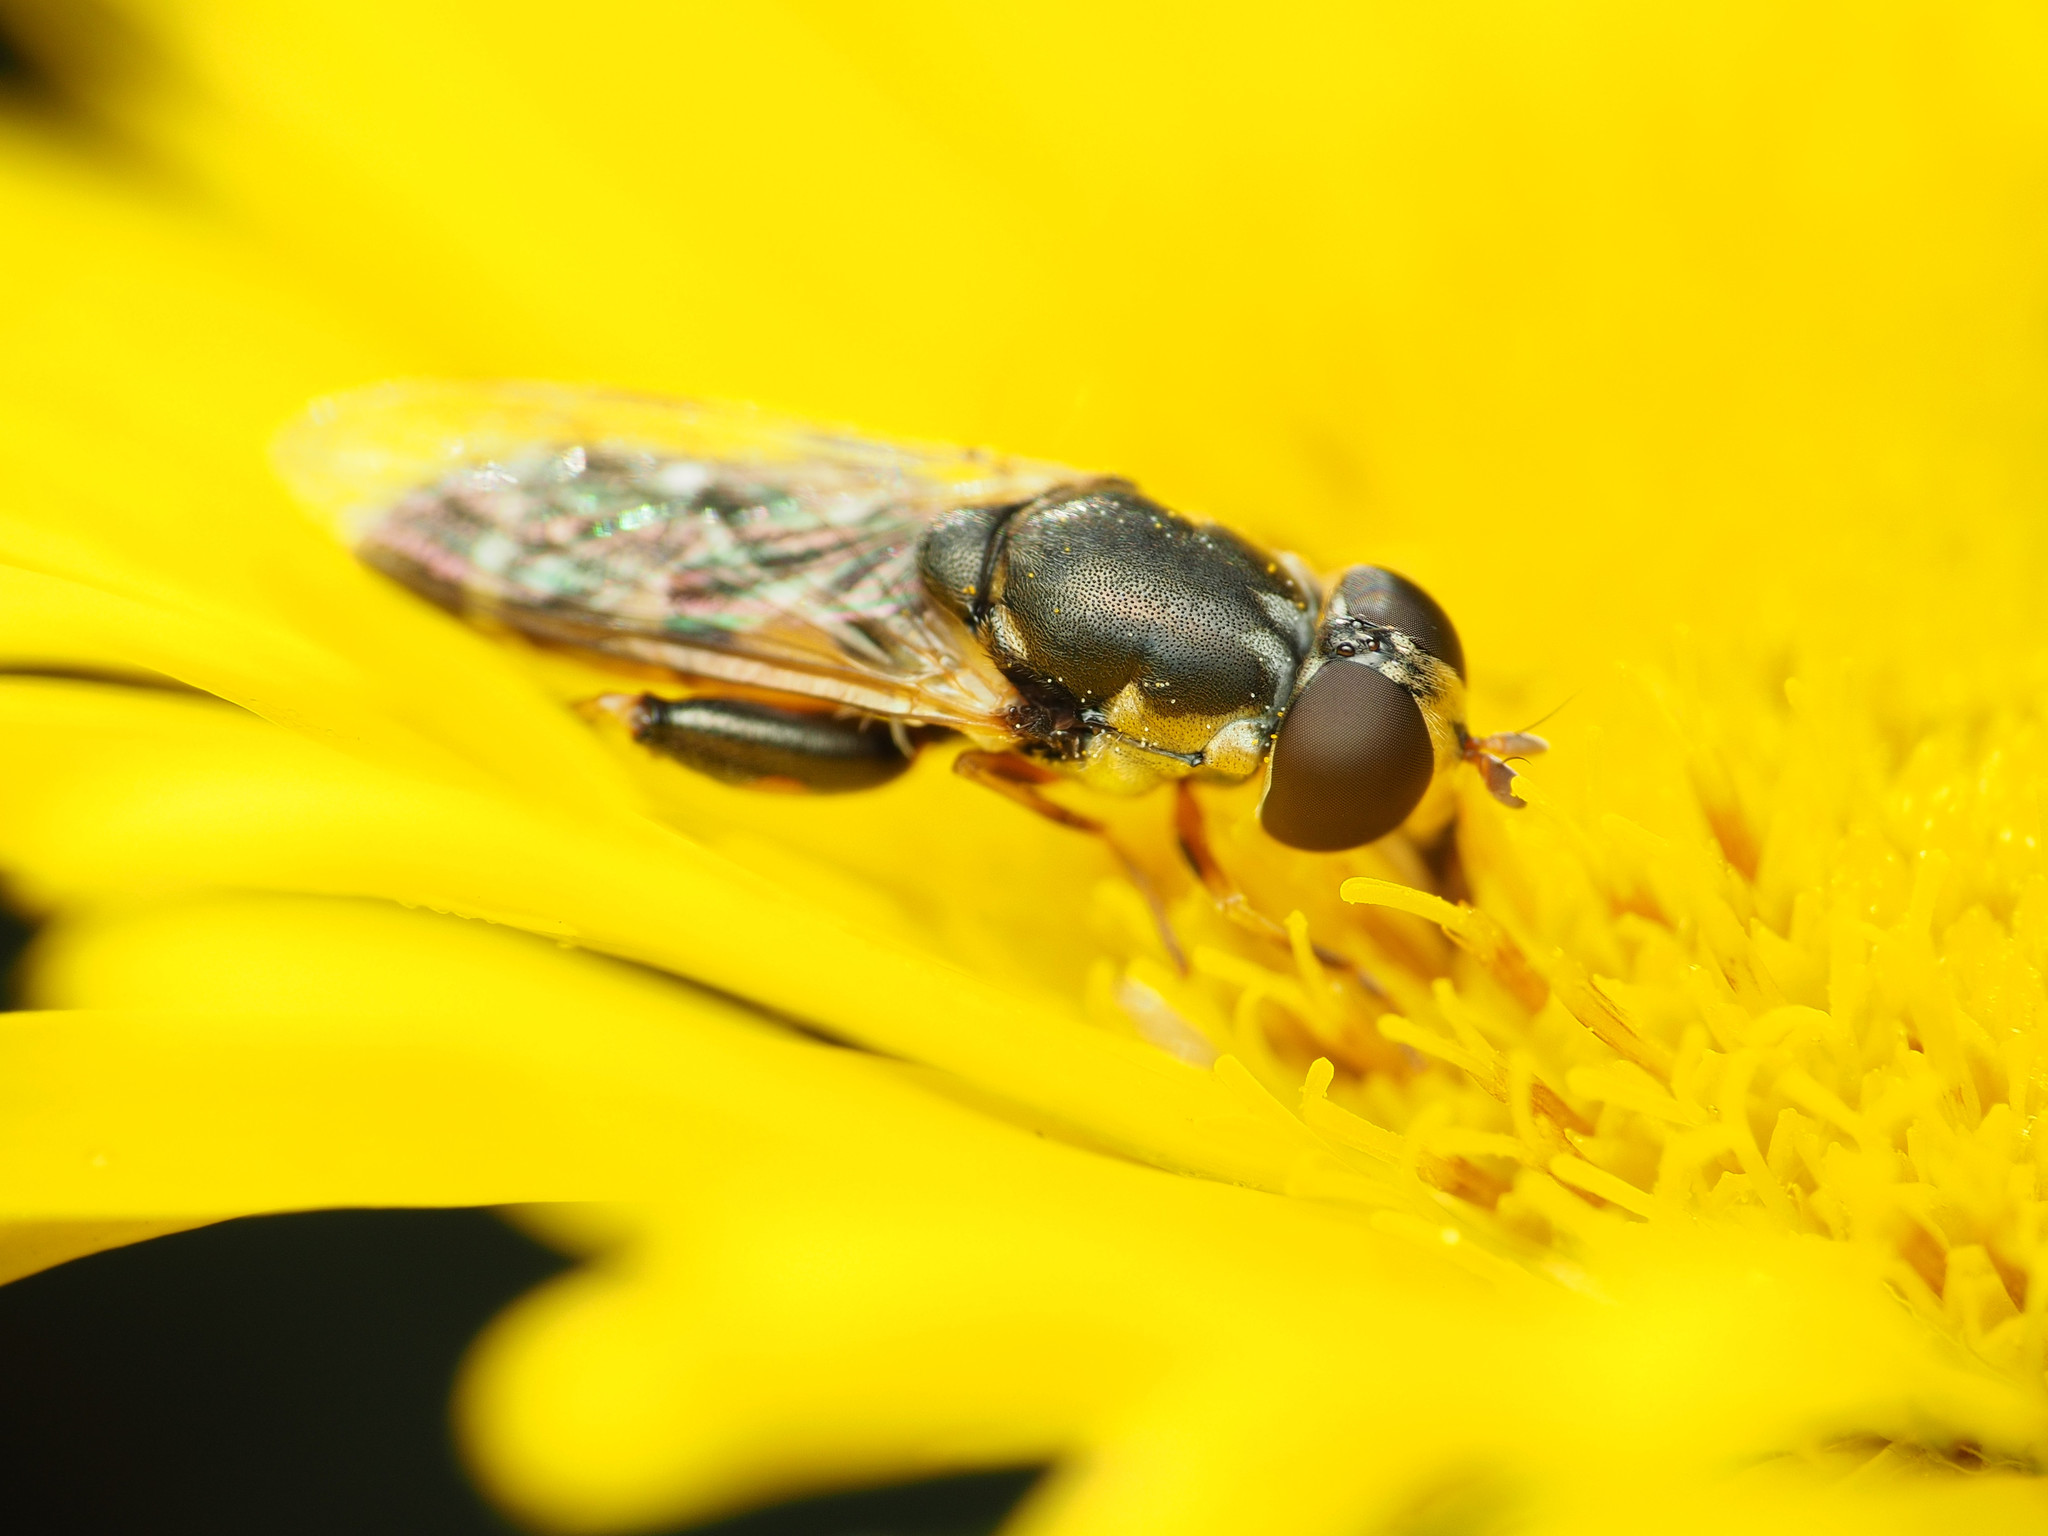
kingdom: Animalia
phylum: Arthropoda
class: Insecta
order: Diptera
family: Syrphidae
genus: Syritta
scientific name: Syritta pipiens
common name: Hover fly
